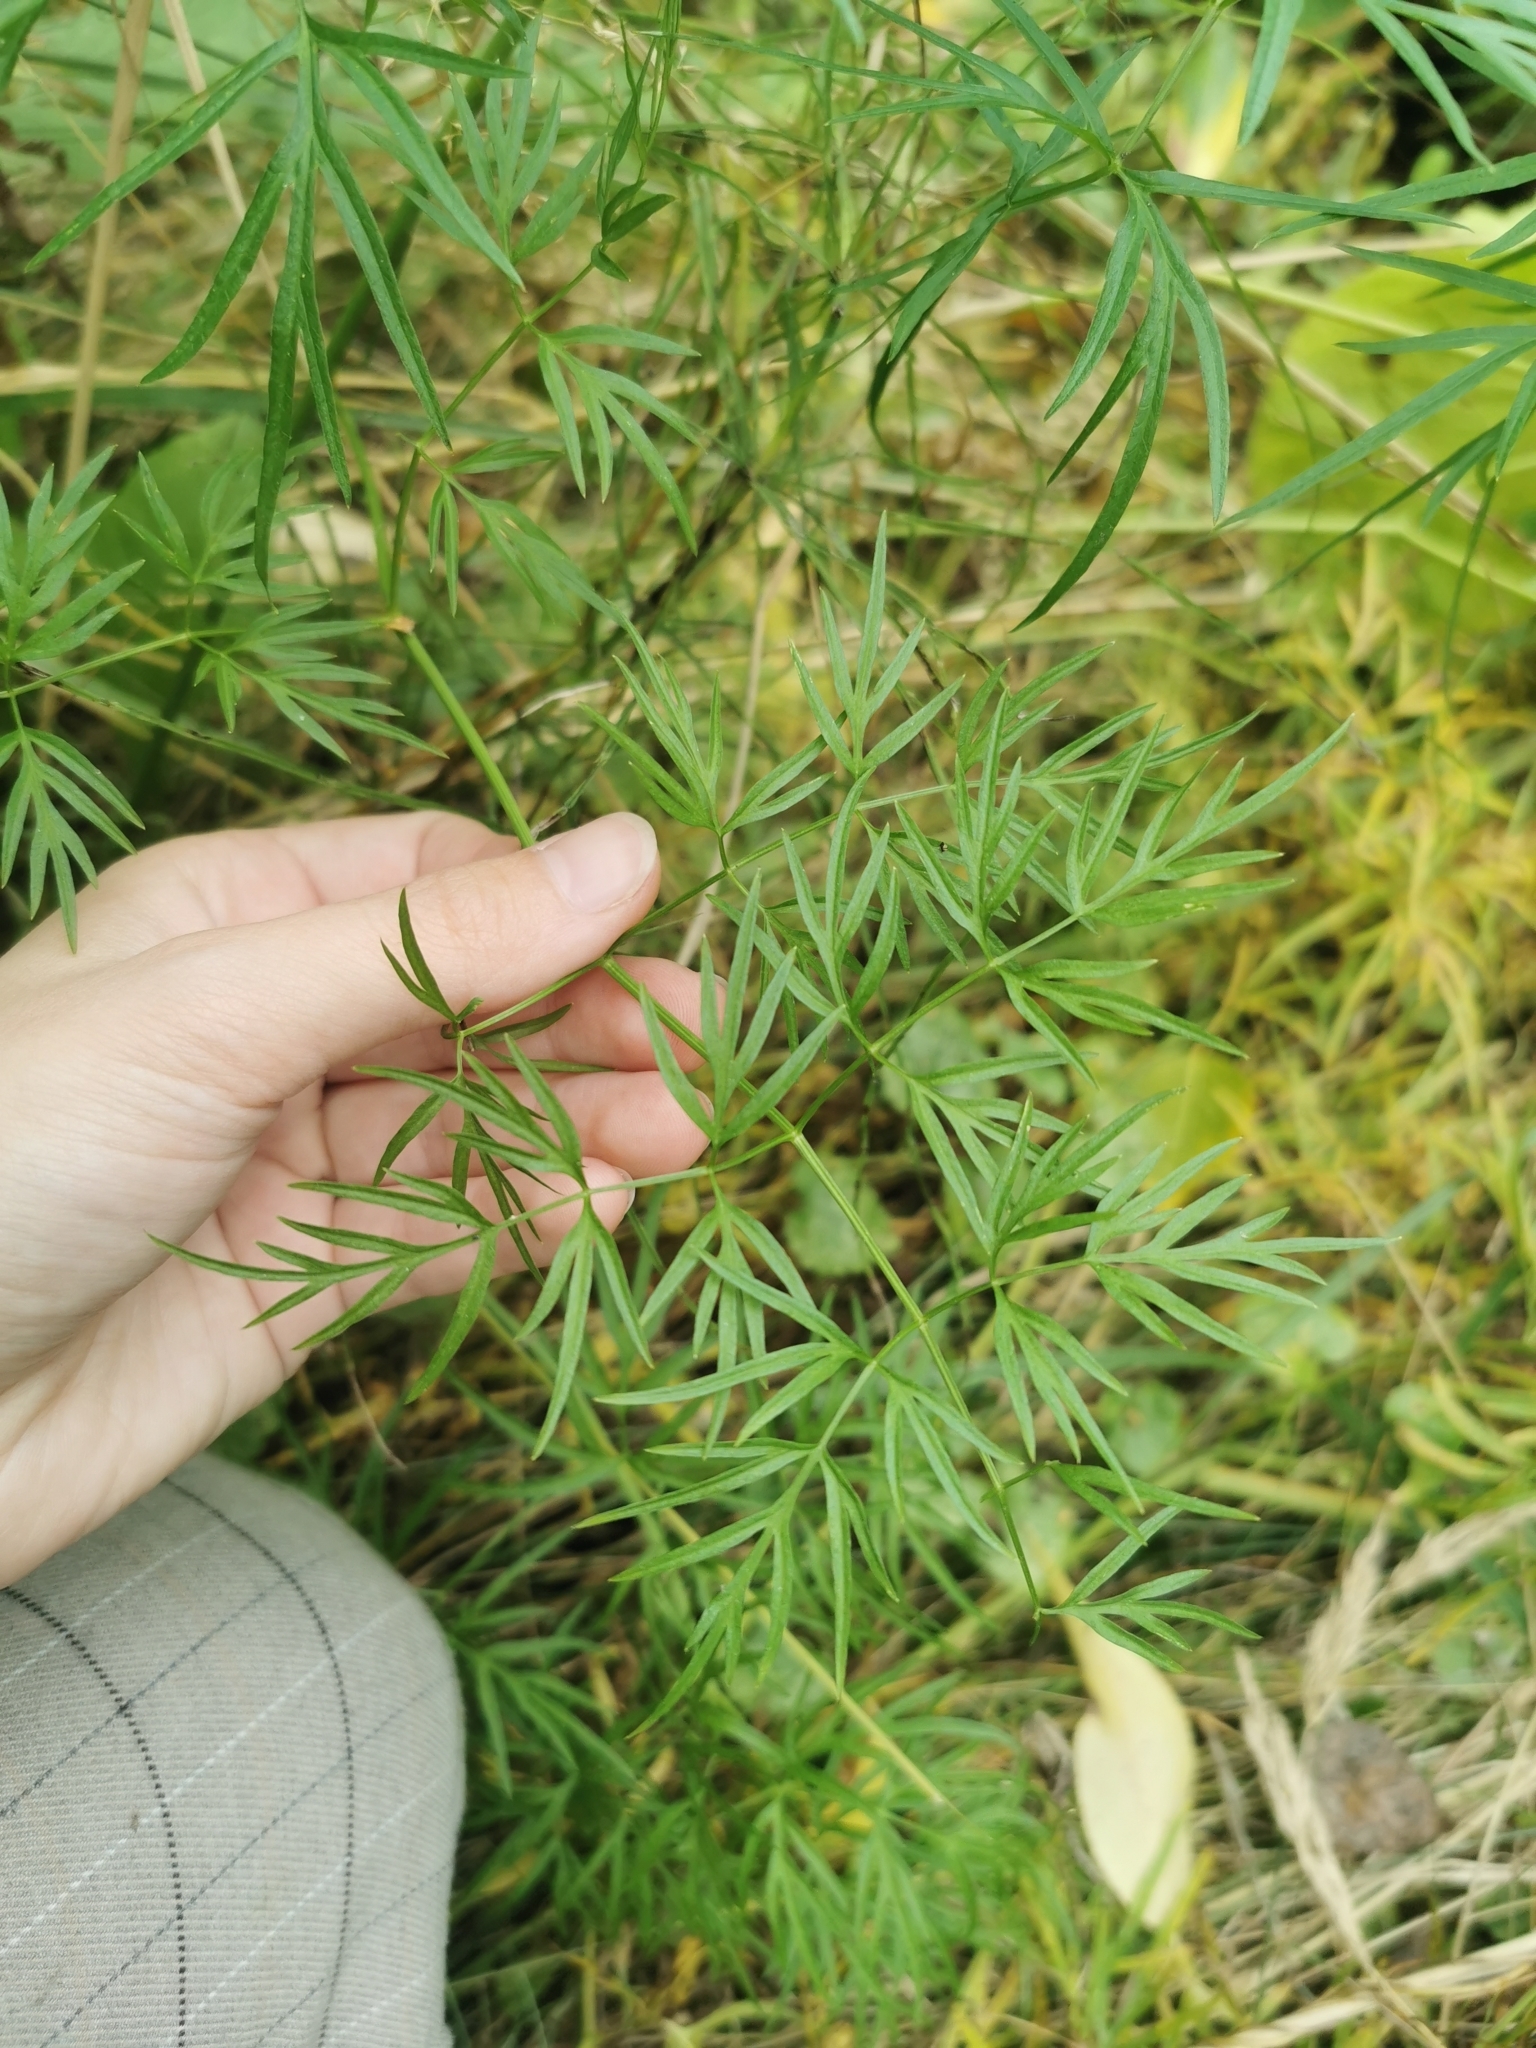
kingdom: Plantae
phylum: Tracheophyta
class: Magnoliopsida
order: Apiales
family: Apiaceae
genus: Cenolophium
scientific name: Cenolophium fischeri
